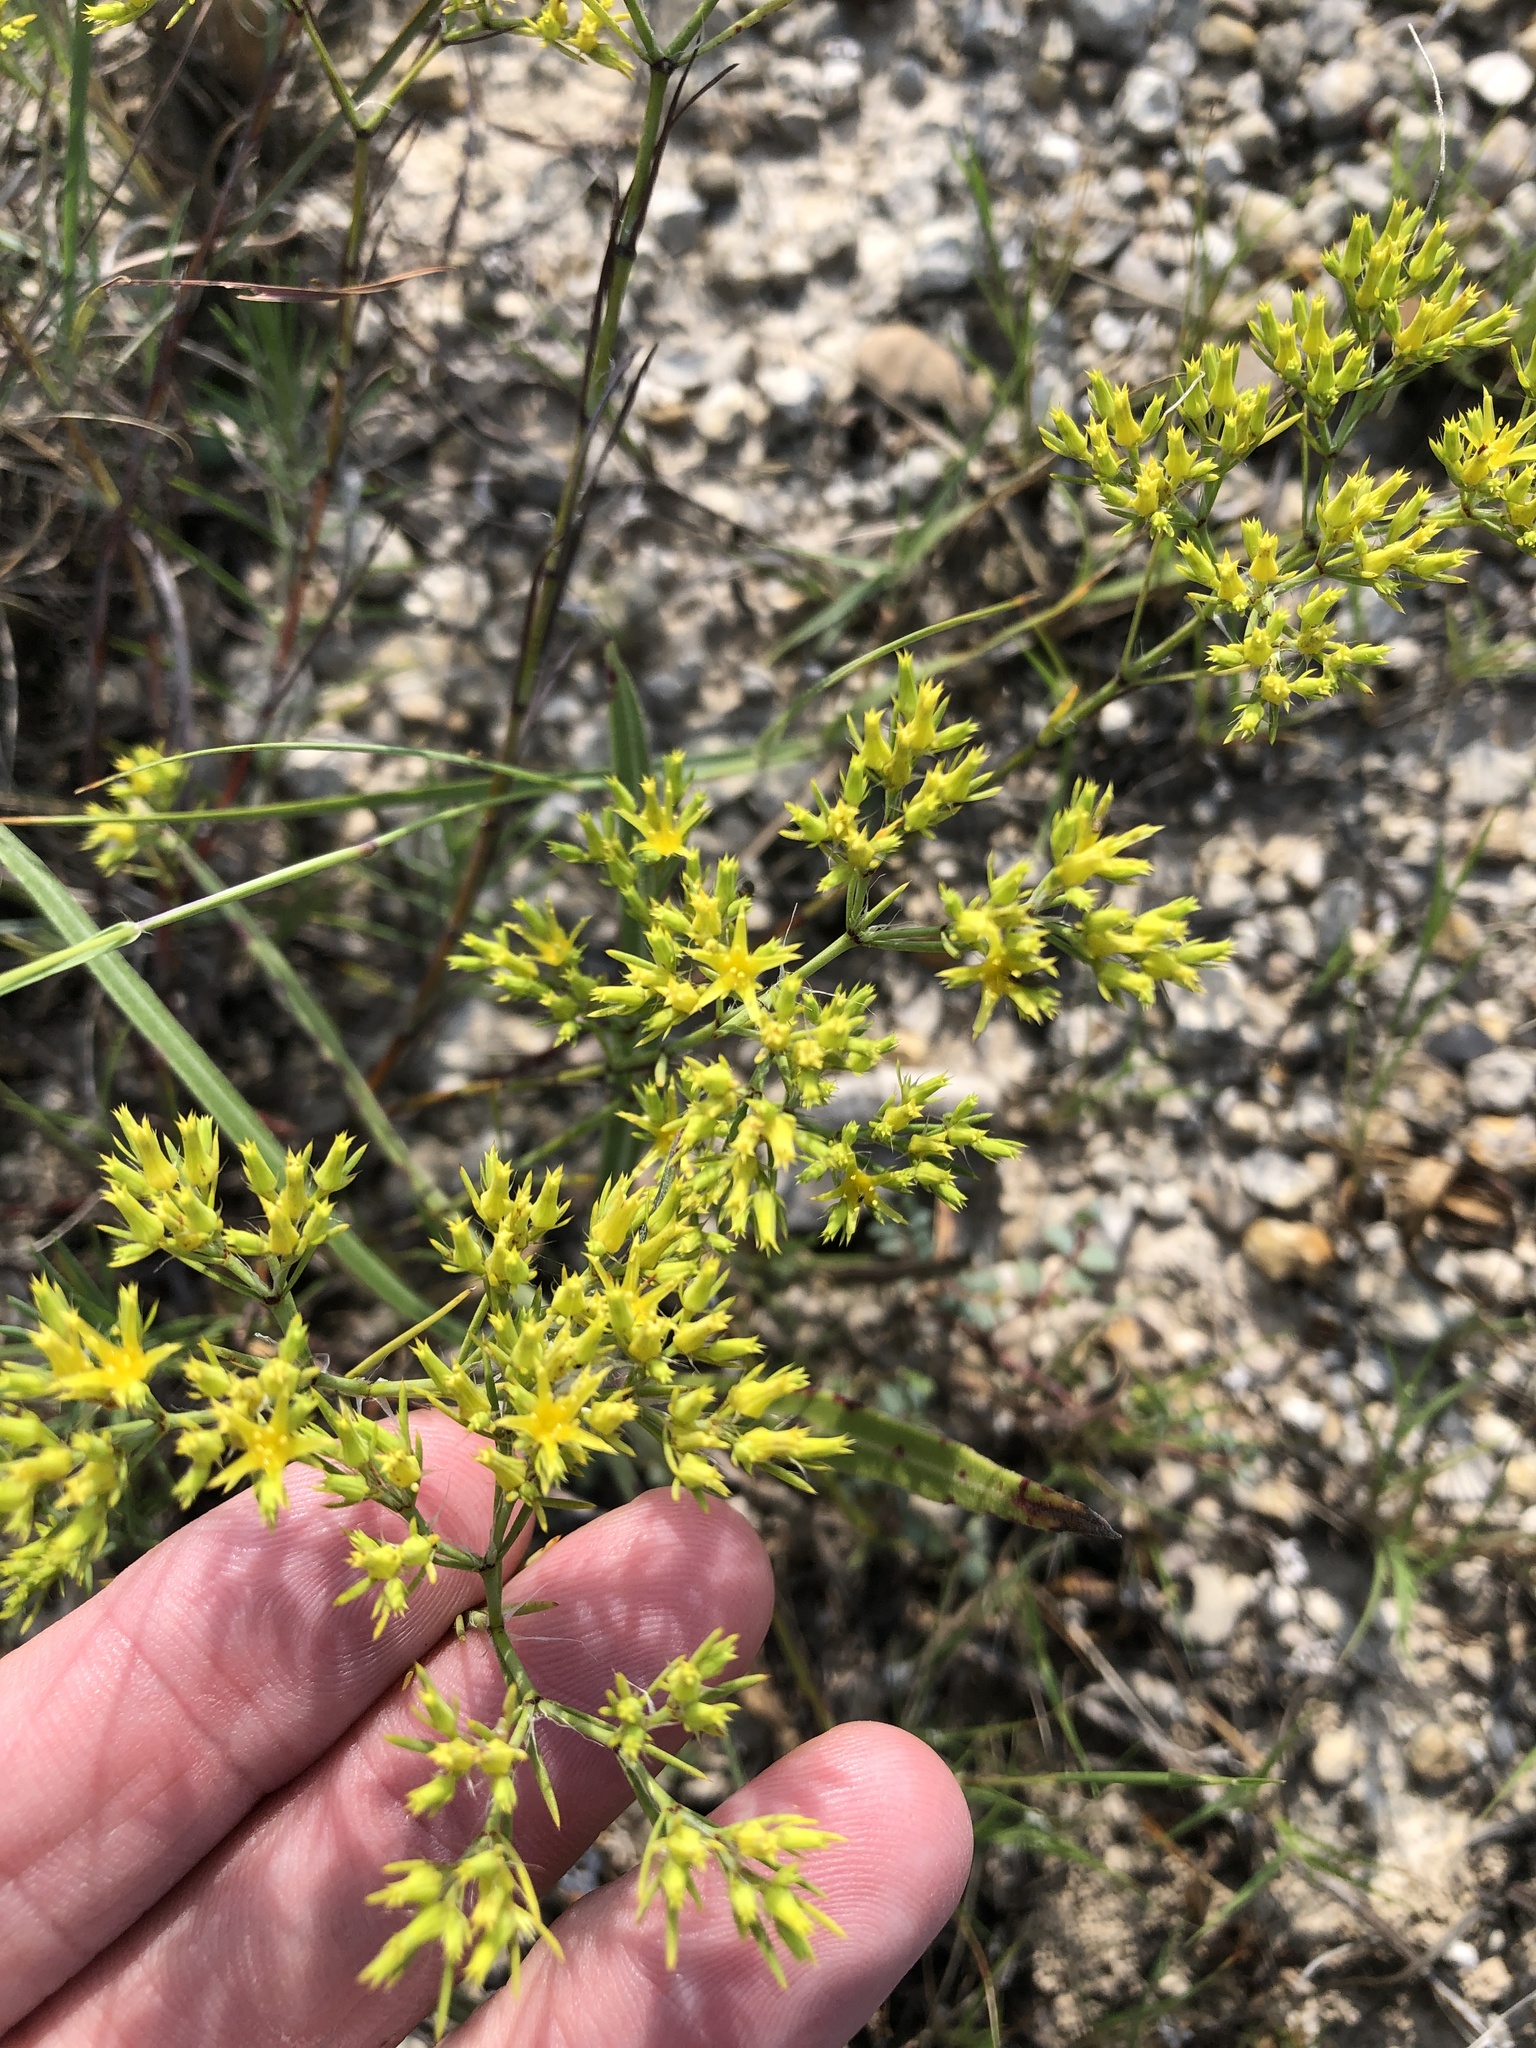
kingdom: Plantae
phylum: Tracheophyta
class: Magnoliopsida
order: Caryophyllales
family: Caryophyllaceae
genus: Paronychia
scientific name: Paronychia virginica
